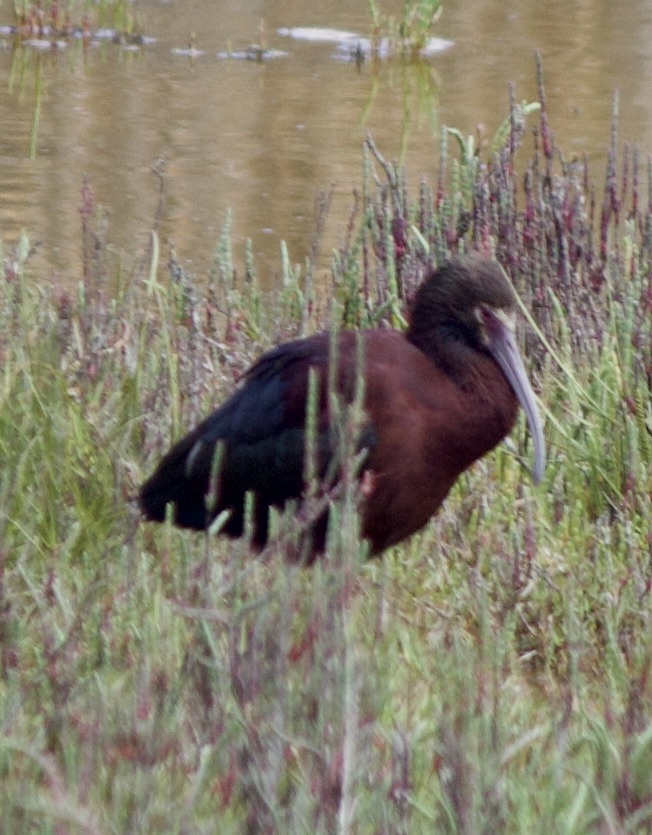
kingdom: Animalia
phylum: Chordata
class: Aves
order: Pelecaniformes
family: Threskiornithidae
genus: Plegadis
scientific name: Plegadis chihi
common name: White-faced ibis
